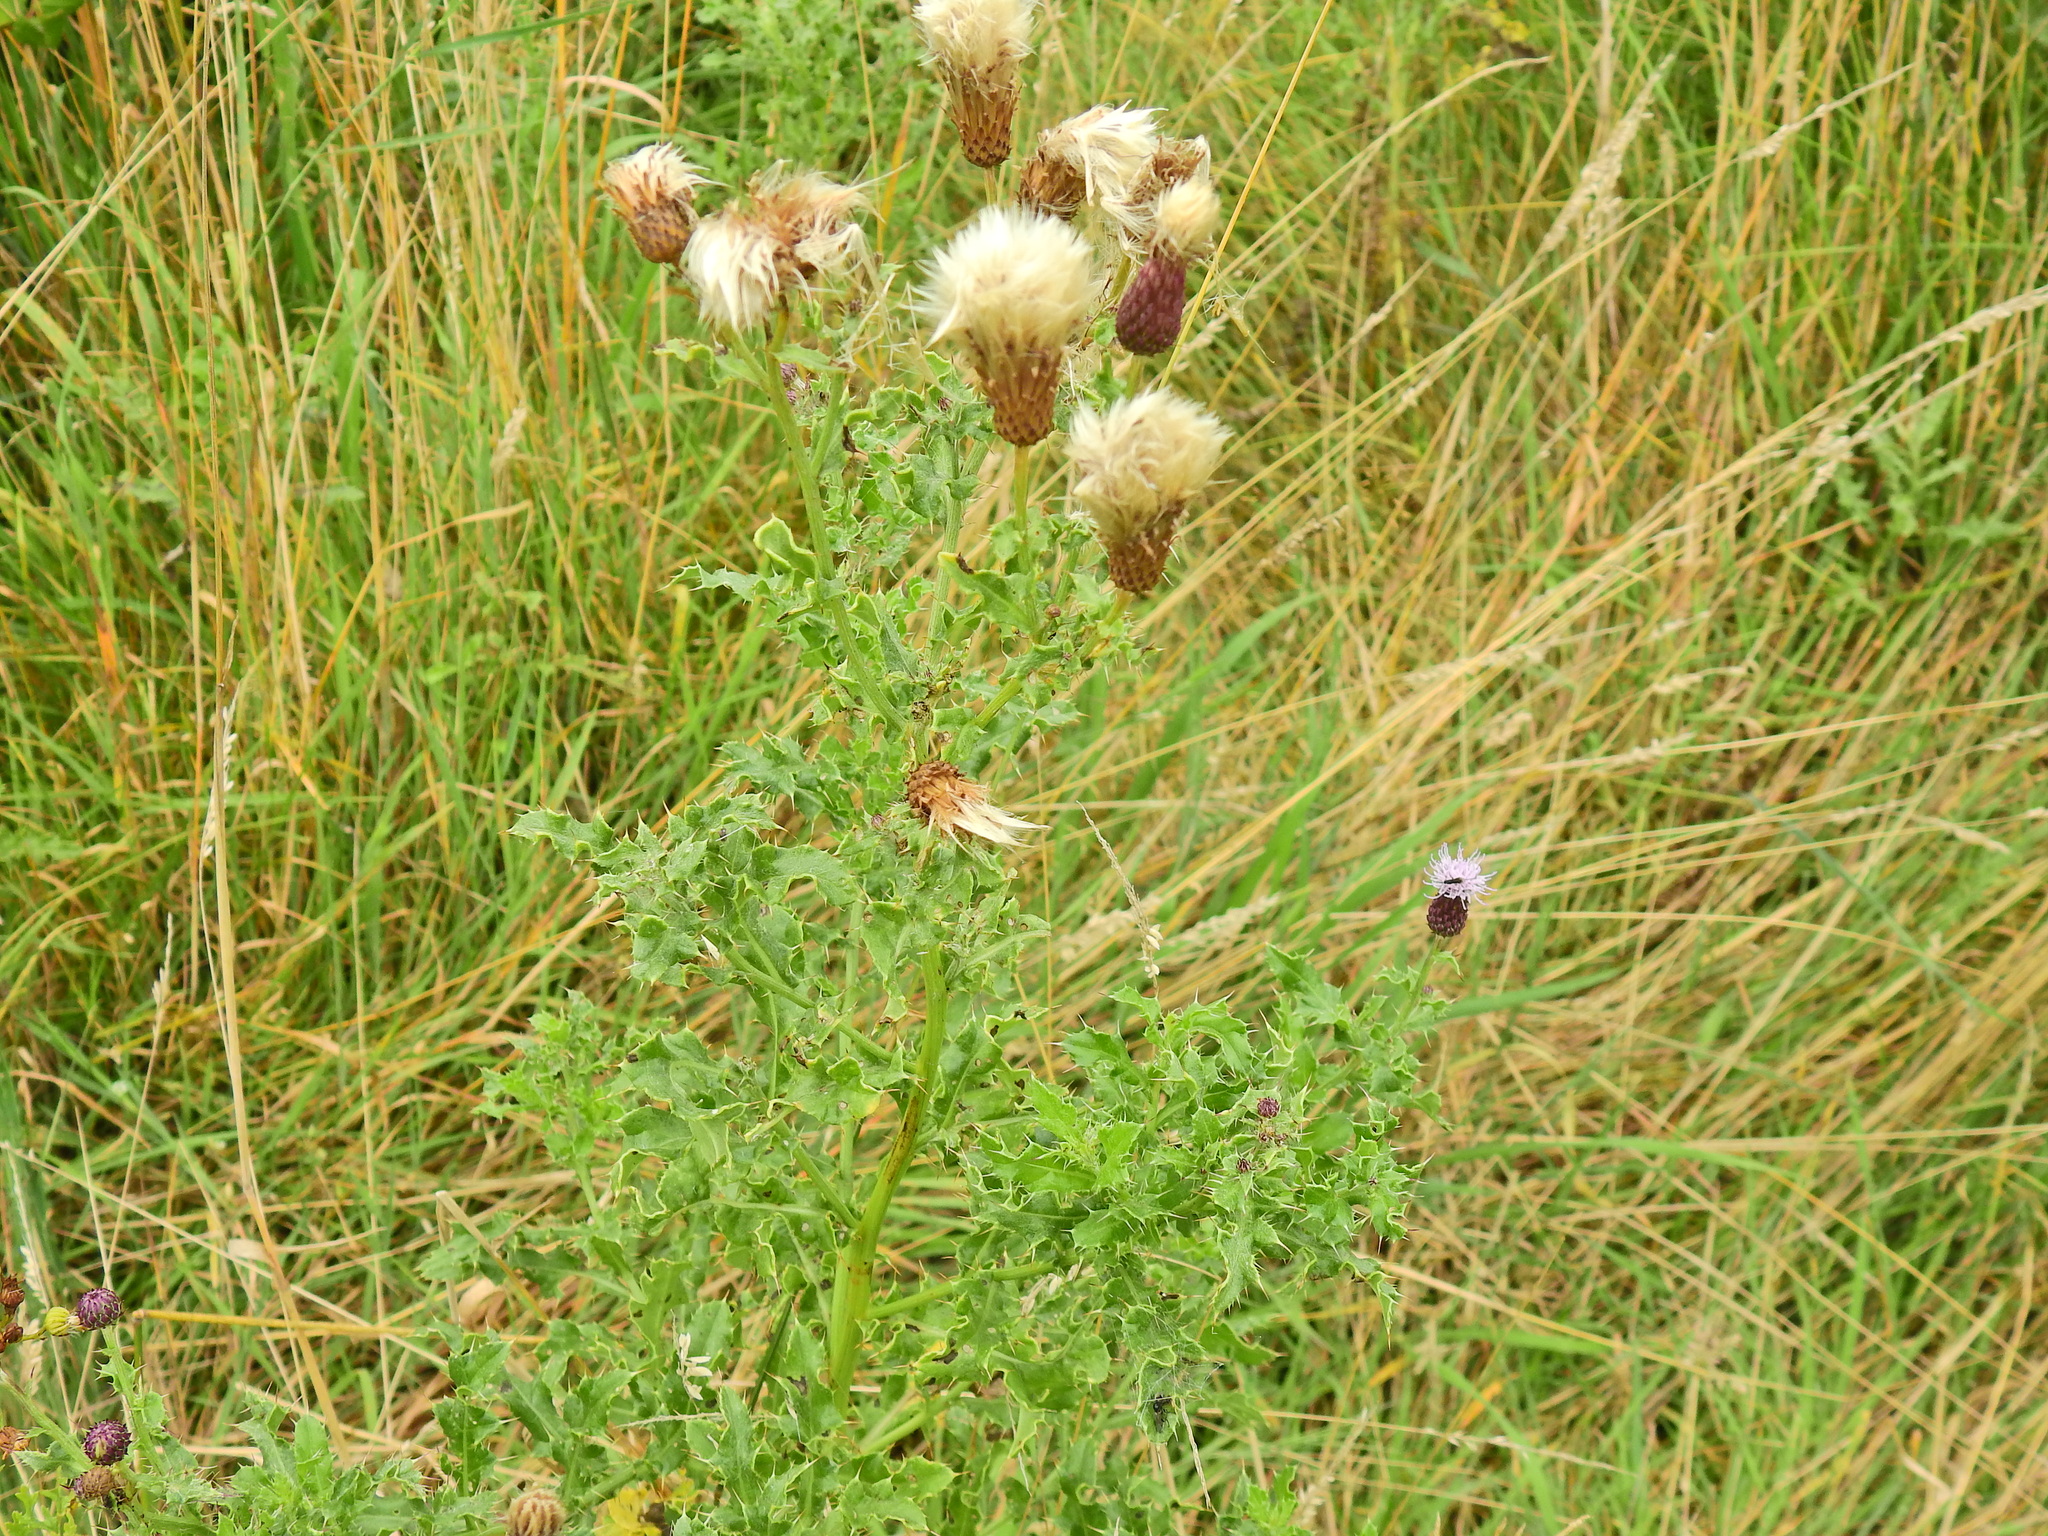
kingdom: Plantae
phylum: Tracheophyta
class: Magnoliopsida
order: Asterales
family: Asteraceae
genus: Cirsium
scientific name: Cirsium arvense
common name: Creeping thistle
